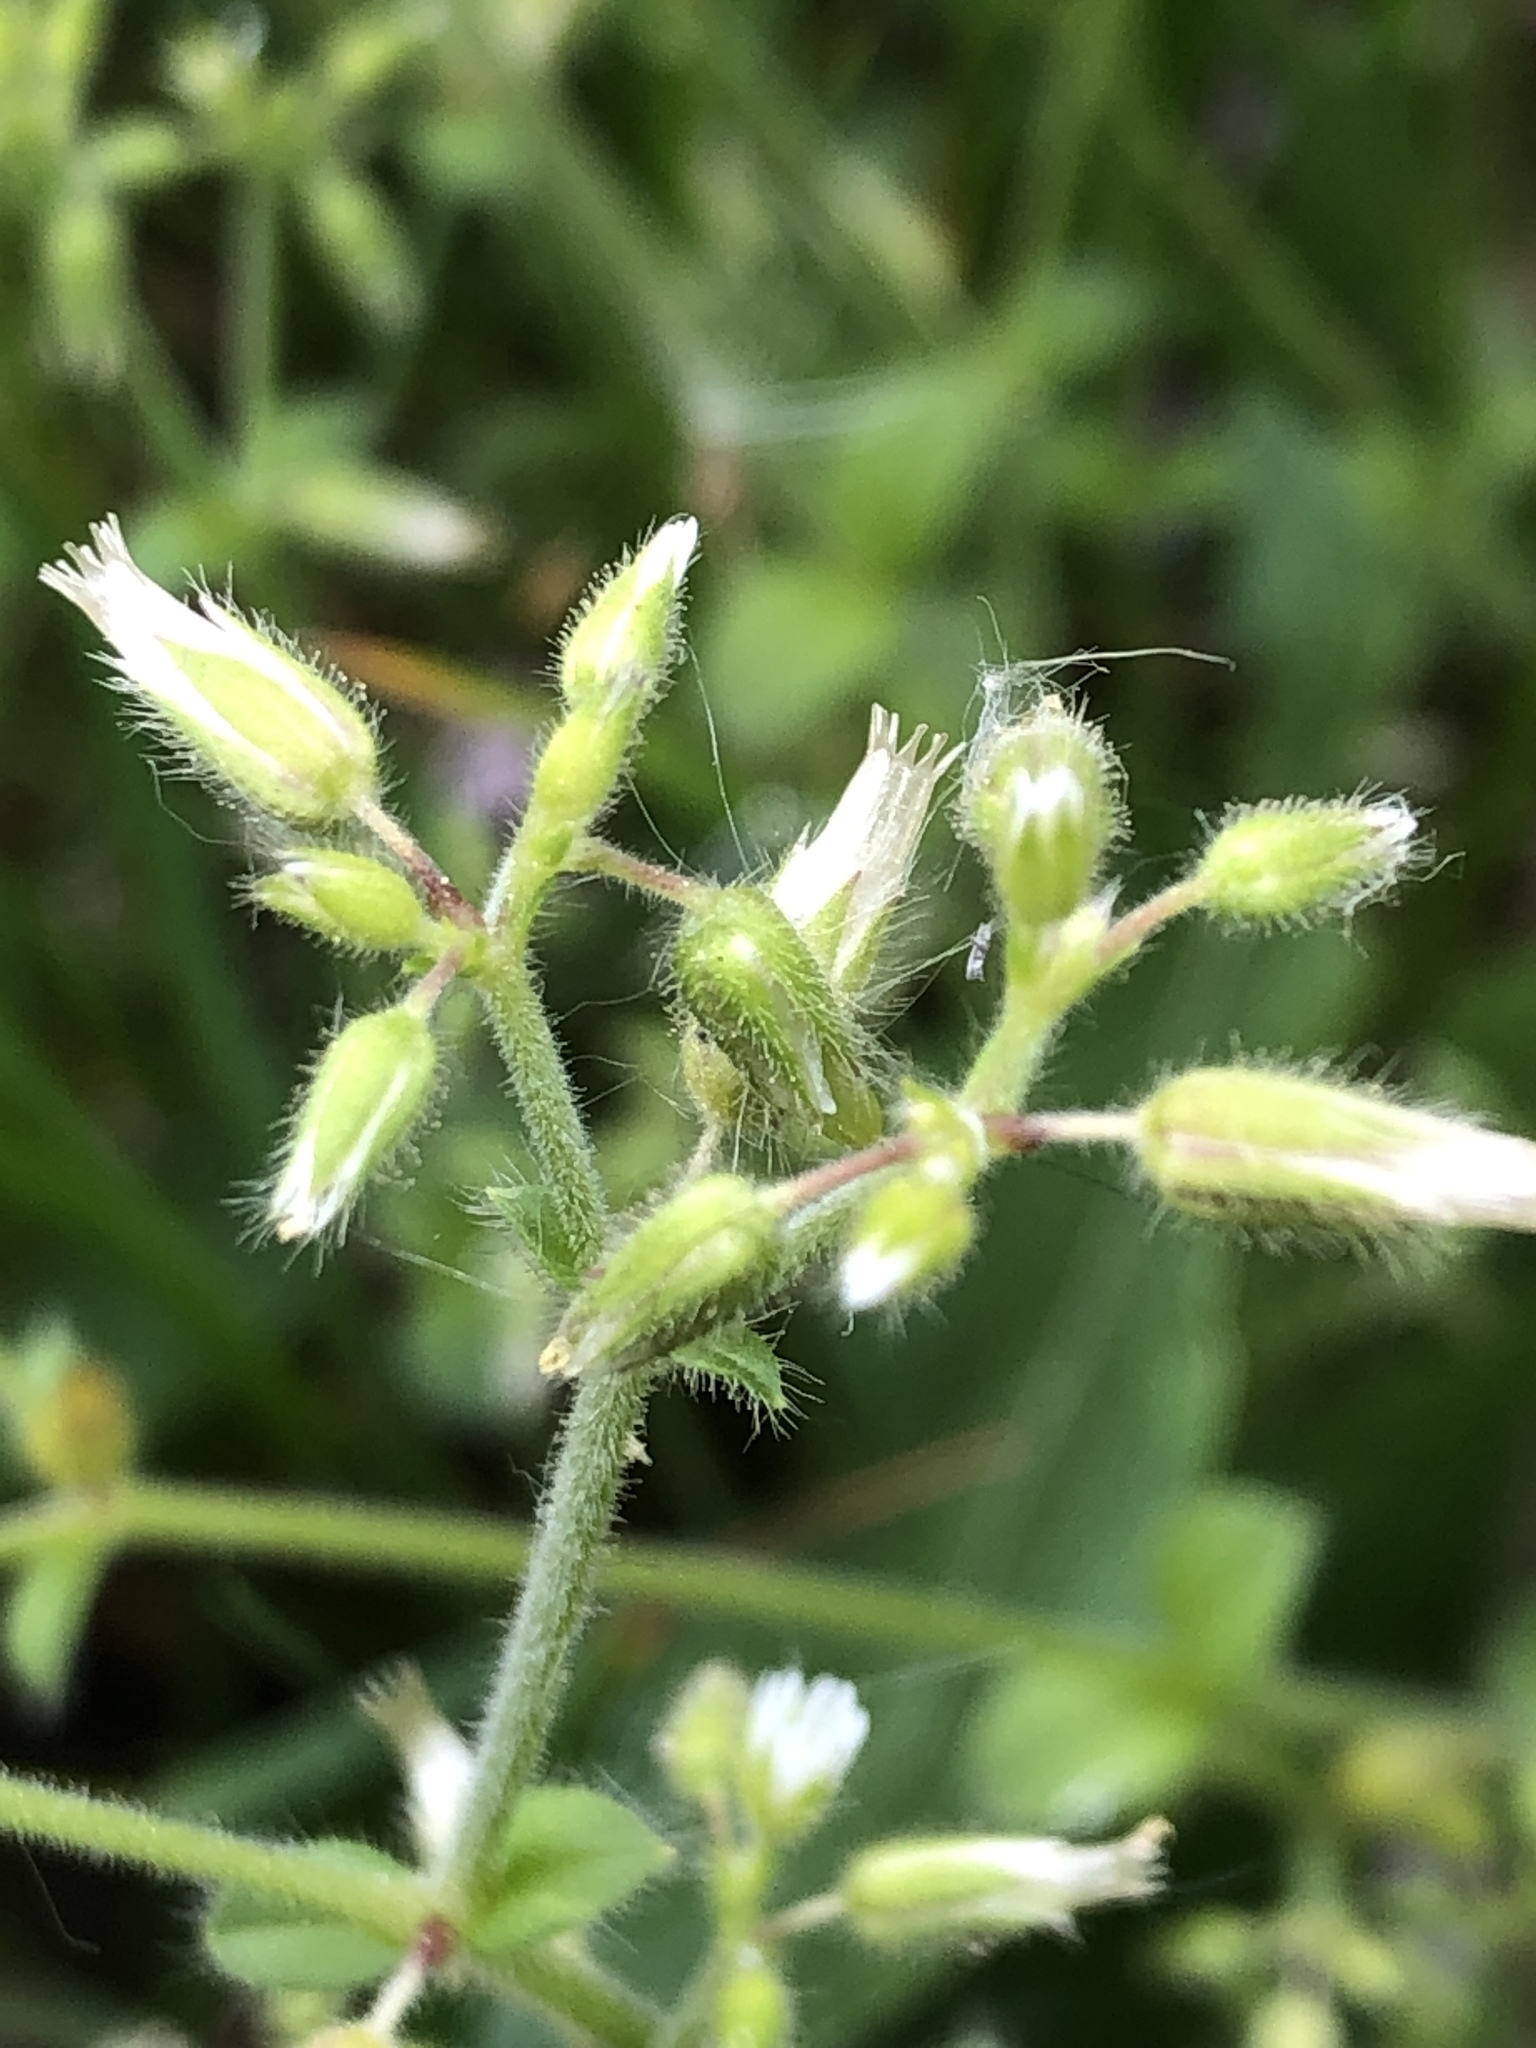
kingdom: Plantae
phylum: Tracheophyta
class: Magnoliopsida
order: Caryophyllales
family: Caryophyllaceae
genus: Cerastium
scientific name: Cerastium glomeratum
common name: Sticky chickweed
